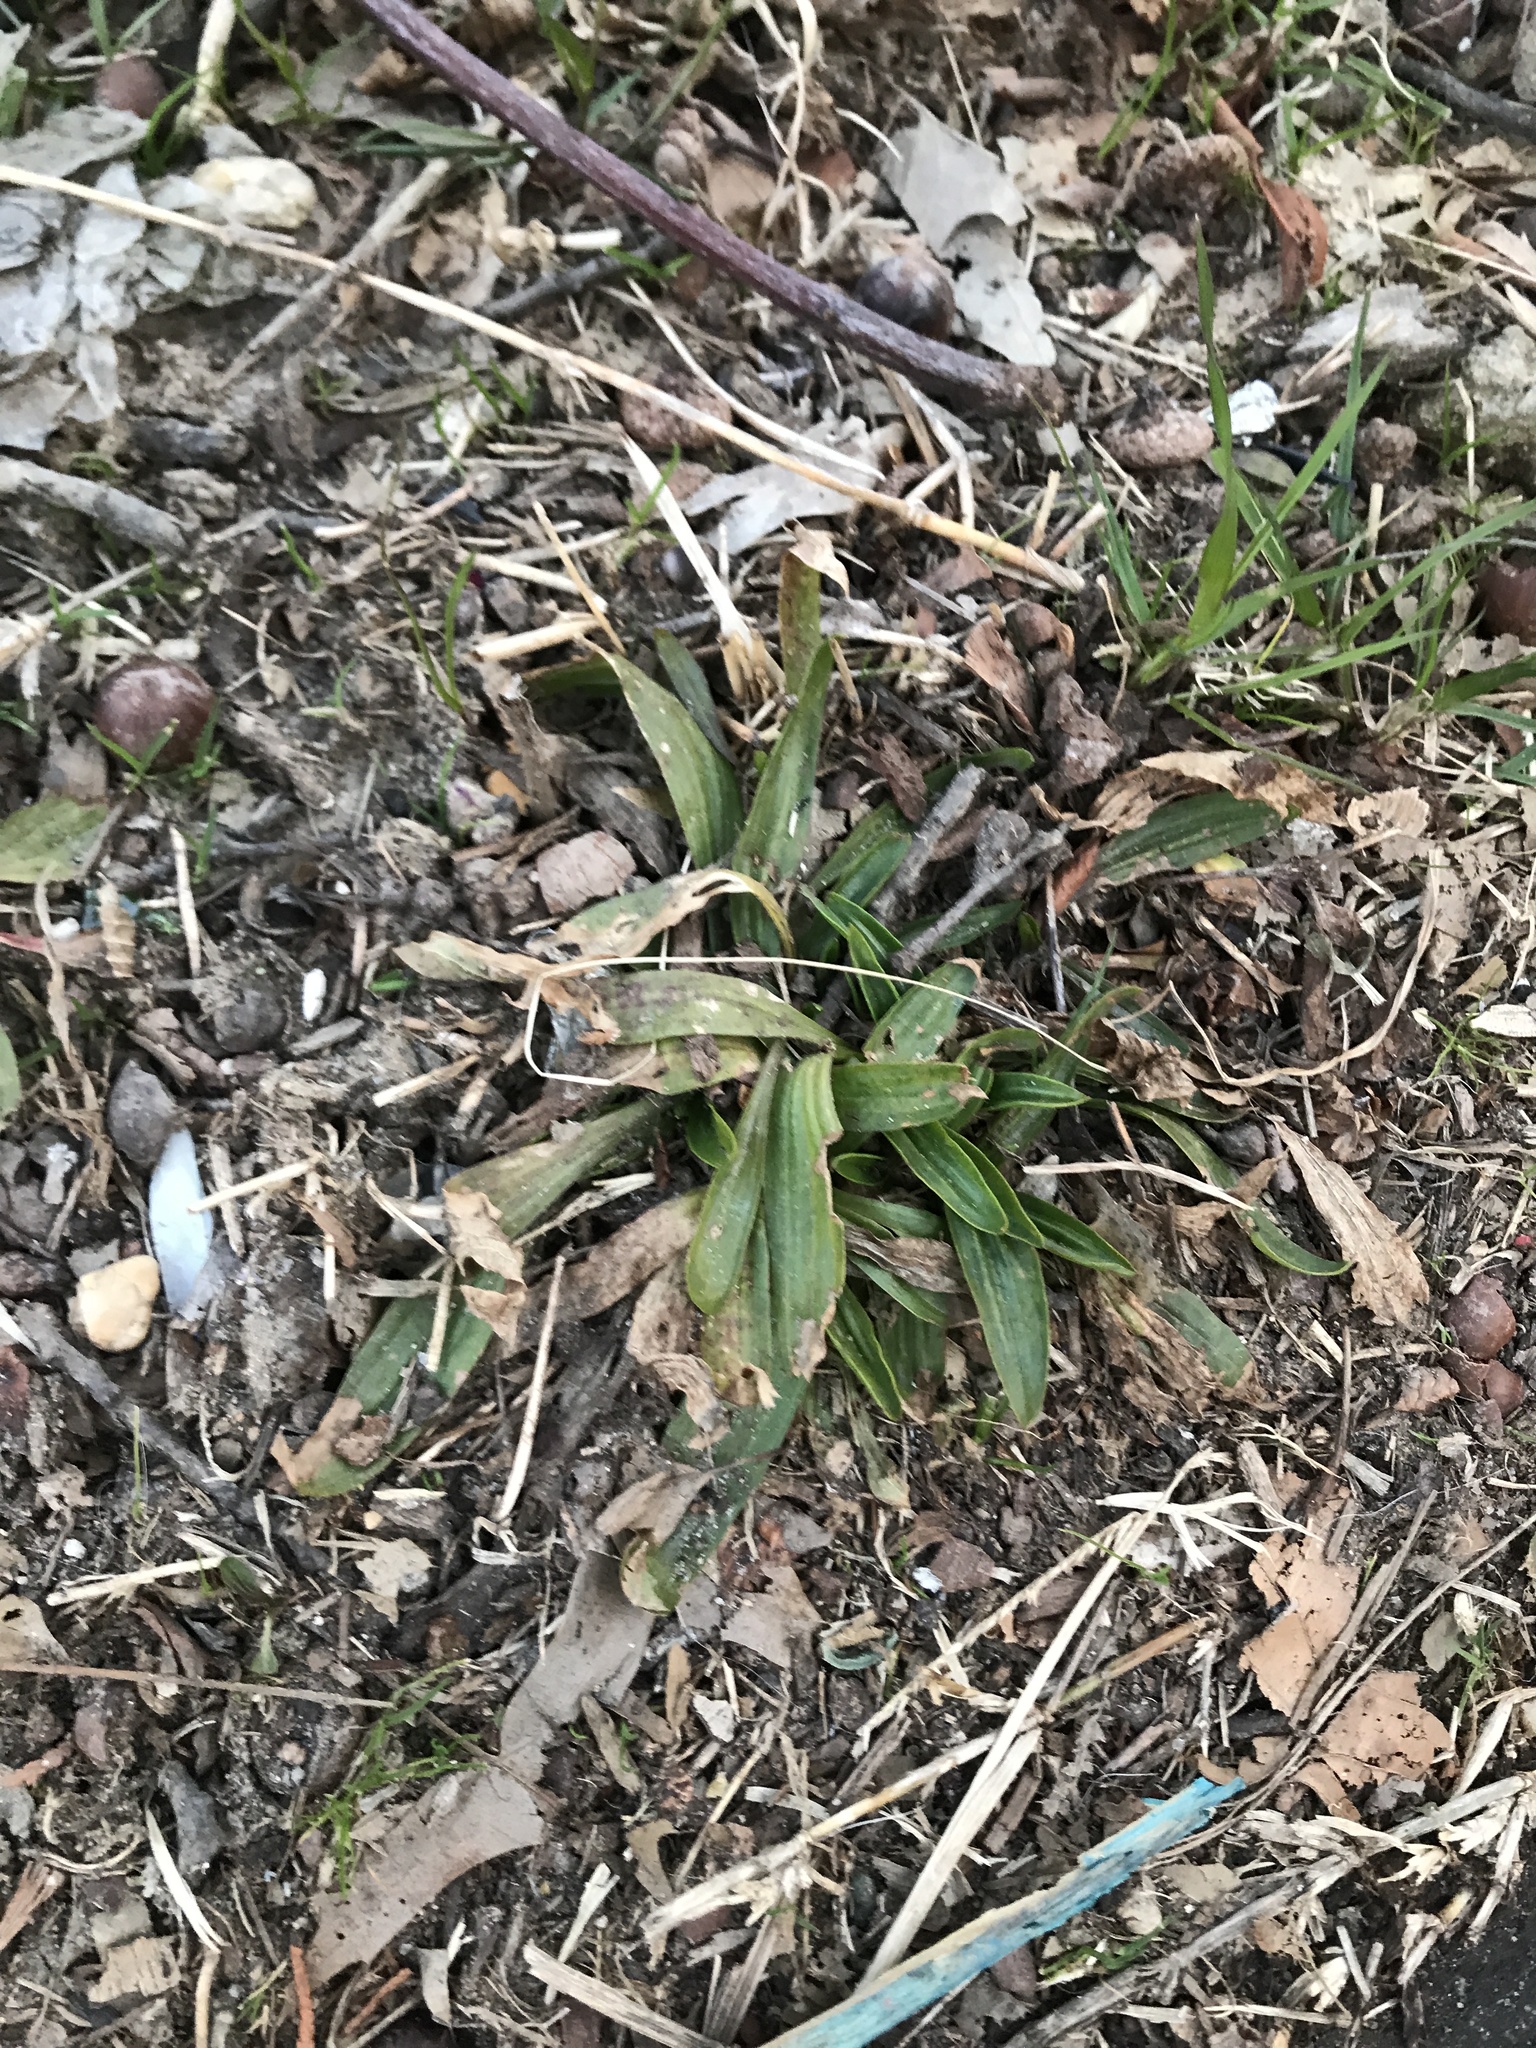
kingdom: Plantae
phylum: Tracheophyta
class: Magnoliopsida
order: Lamiales
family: Plantaginaceae
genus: Plantago
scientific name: Plantago lanceolata
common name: Ribwort plantain
